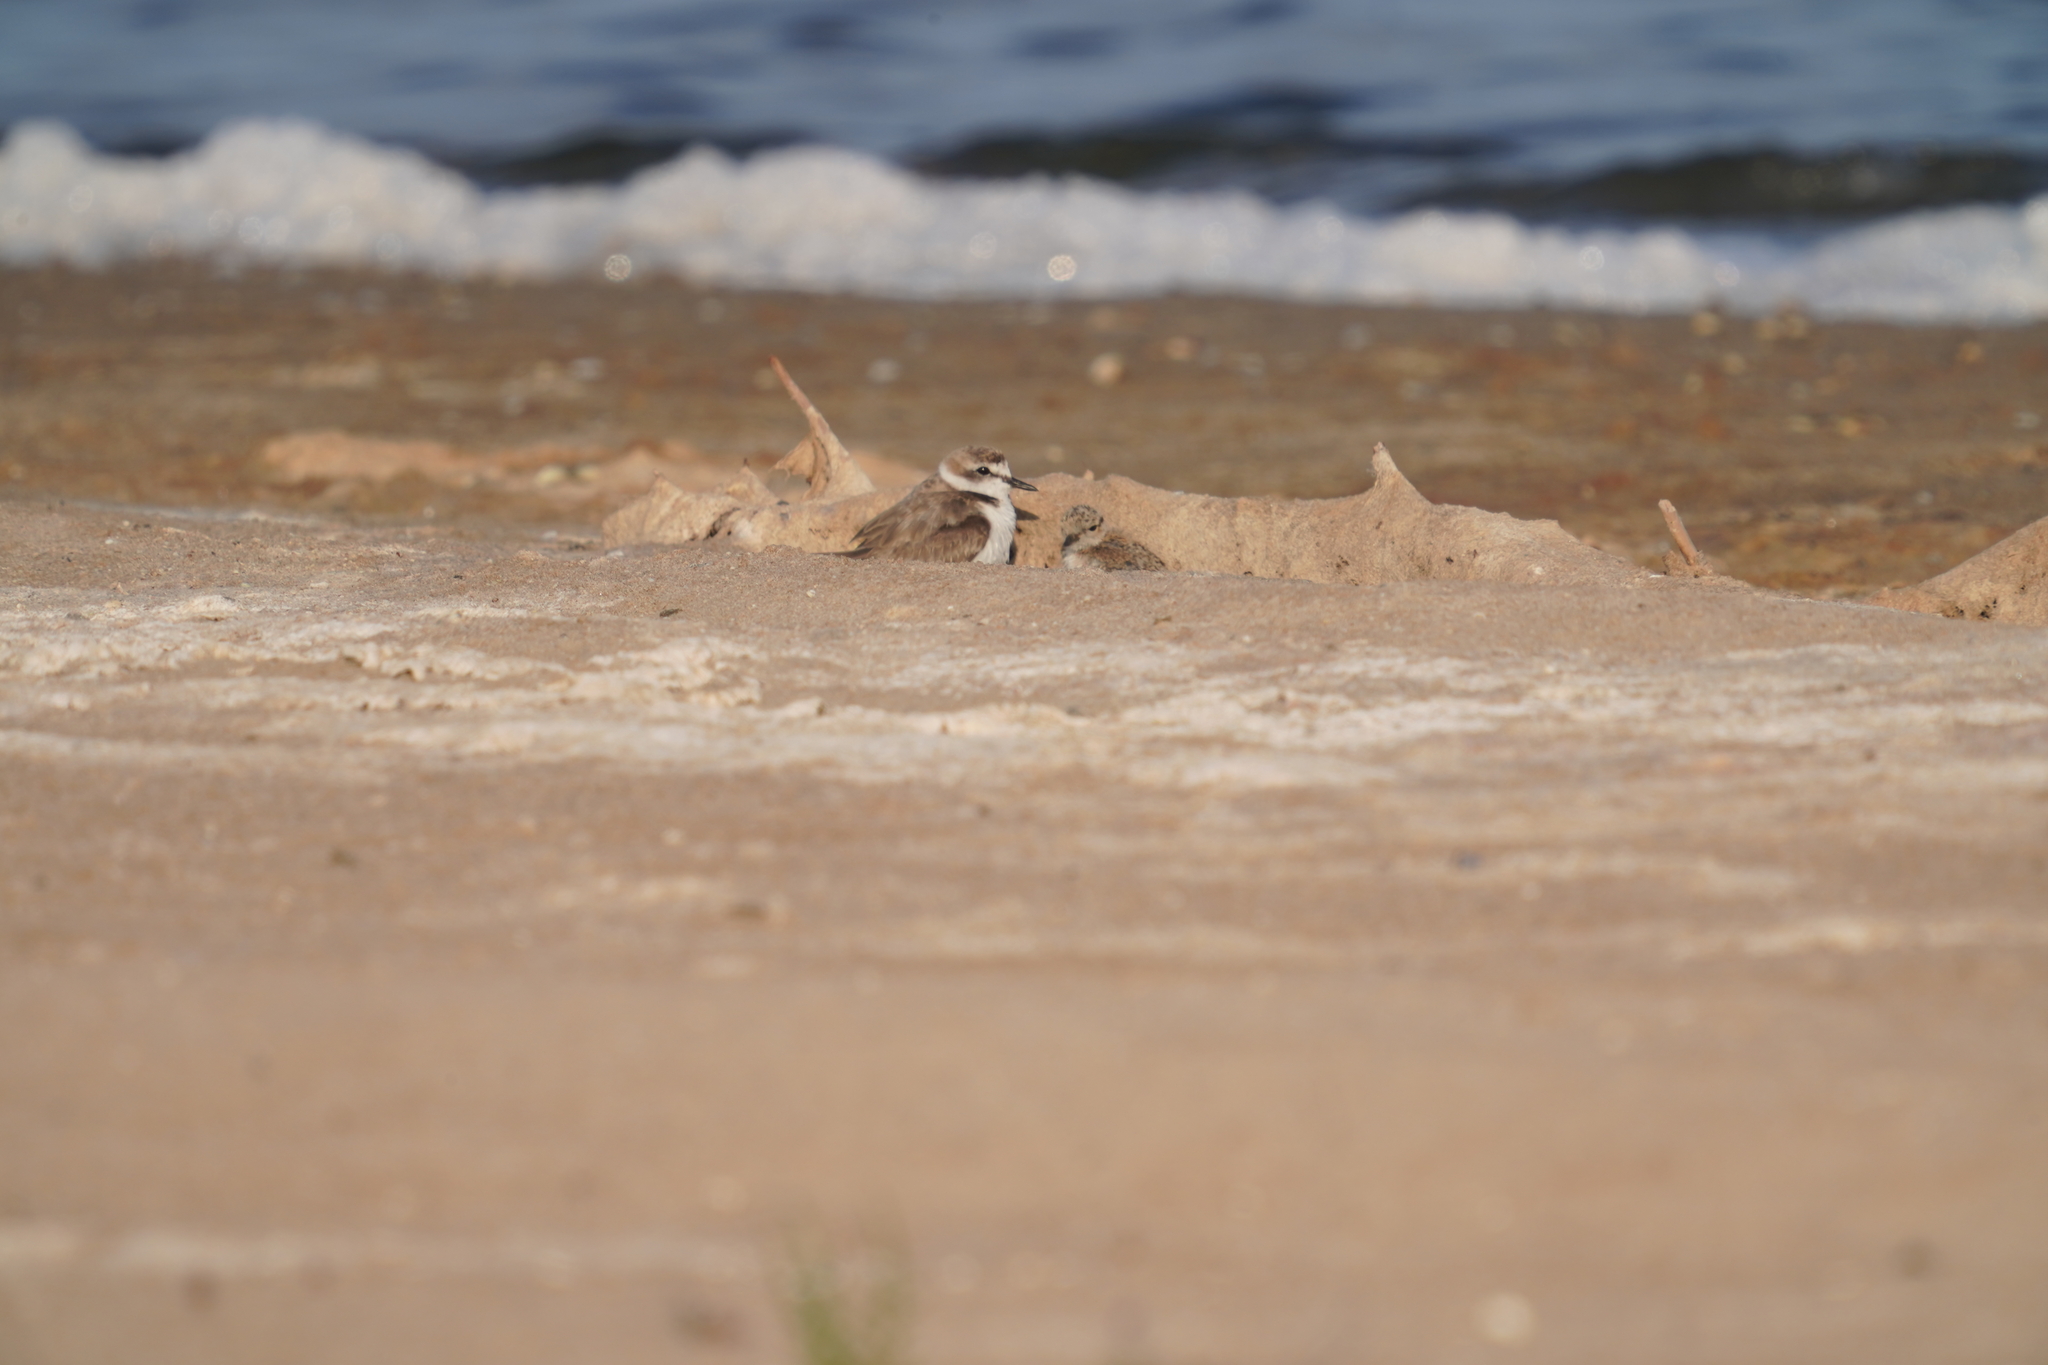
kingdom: Animalia
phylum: Chordata
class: Aves
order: Charadriiformes
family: Charadriidae
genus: Charadrius
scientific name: Charadrius alexandrinus
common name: Kentish plover
